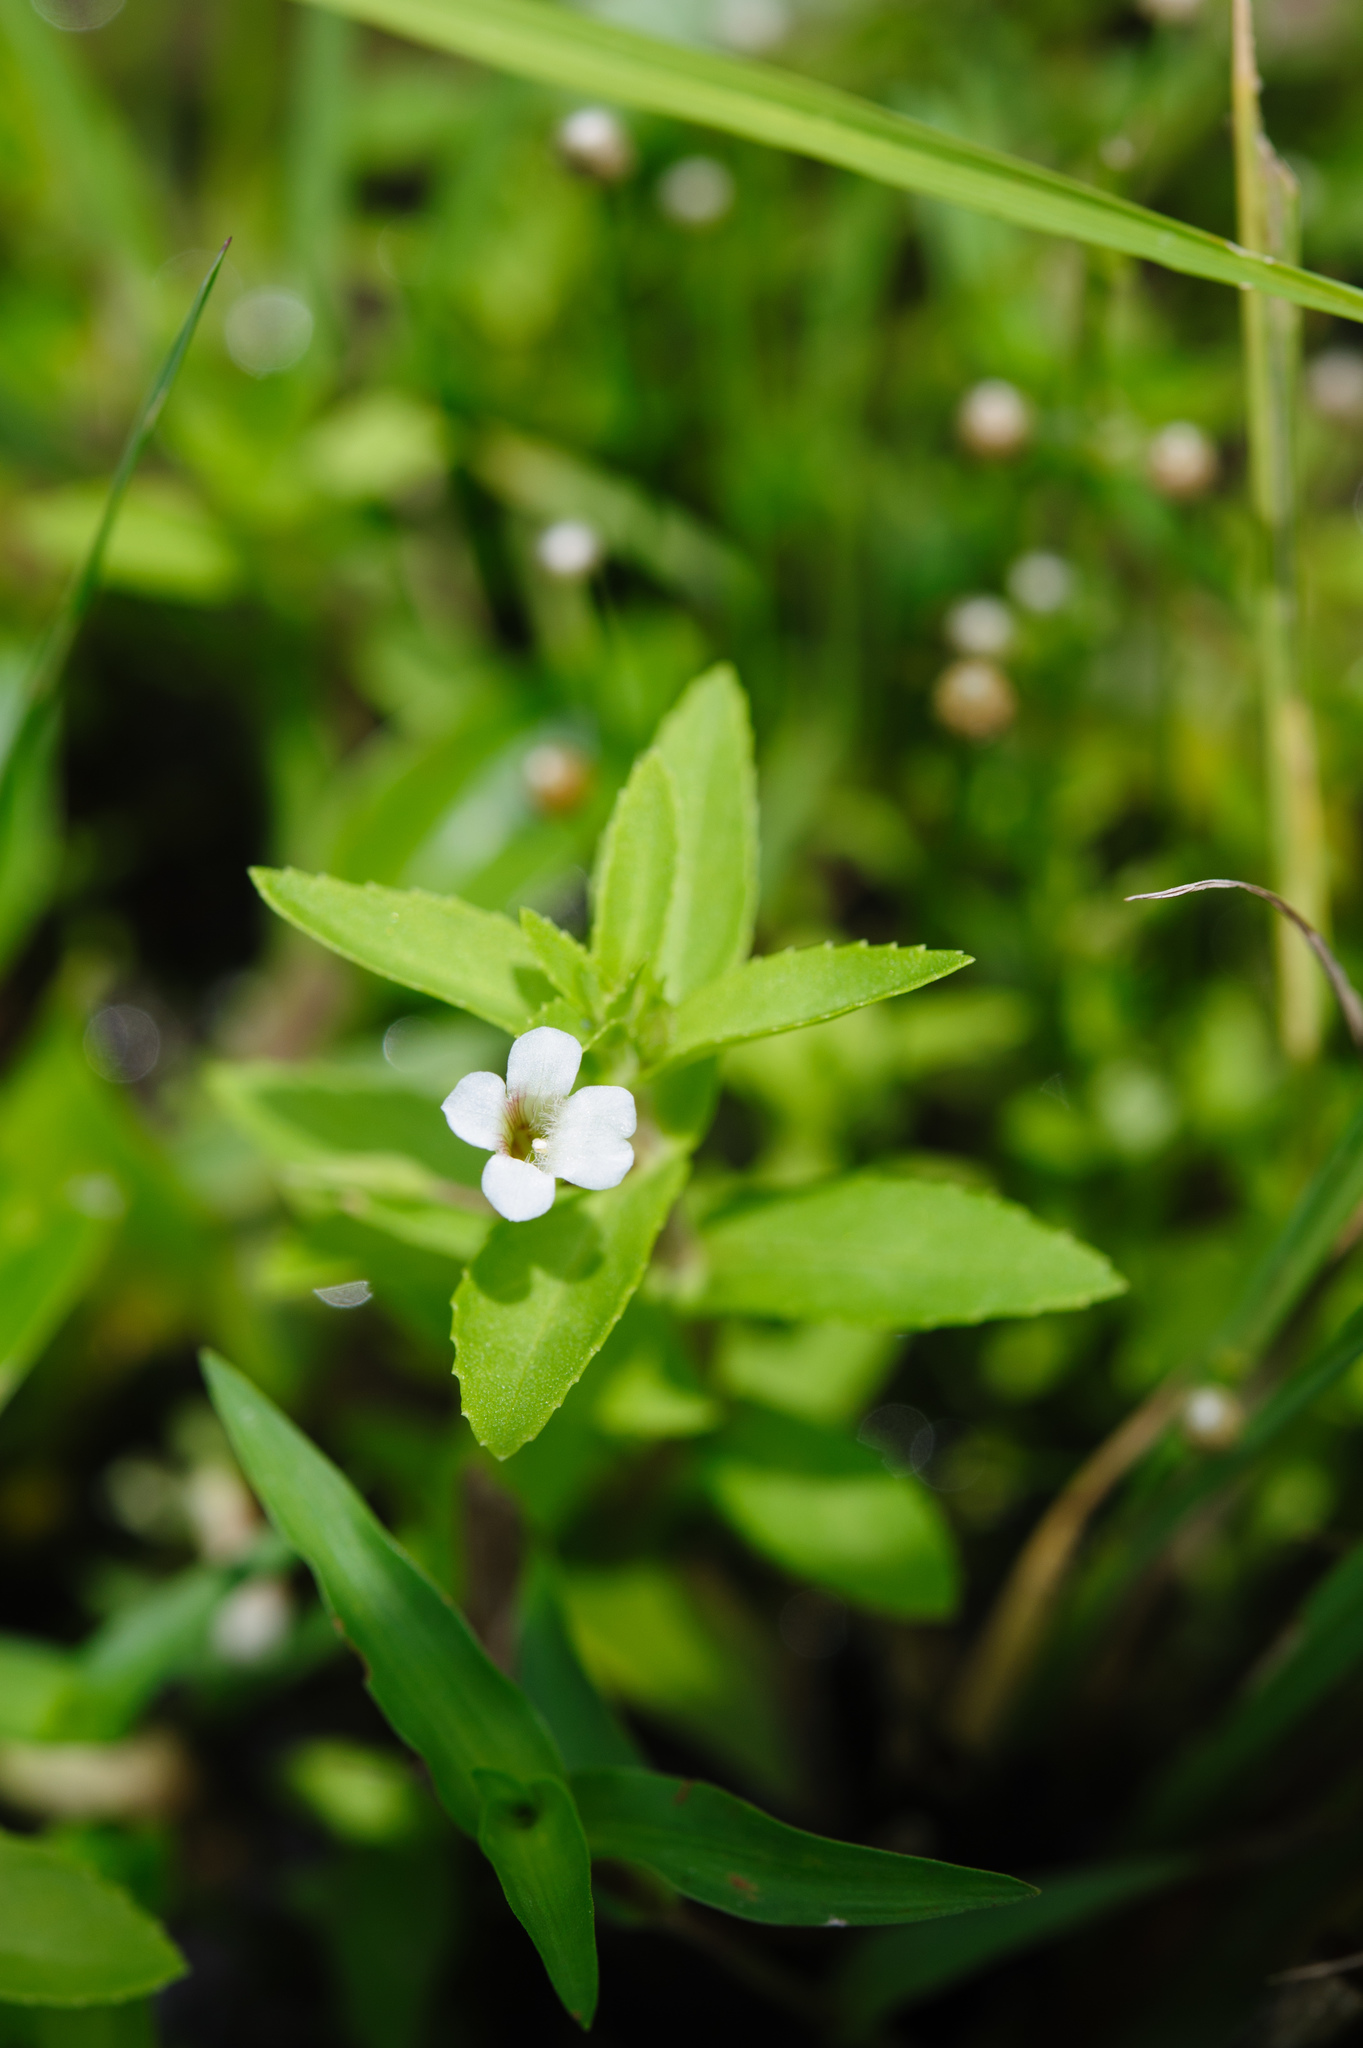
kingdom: Plantae
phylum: Tracheophyta
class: Magnoliopsida
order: Lamiales
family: Plantaginaceae
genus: Limnophila
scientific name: Limnophila aromatica
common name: Finger grass
